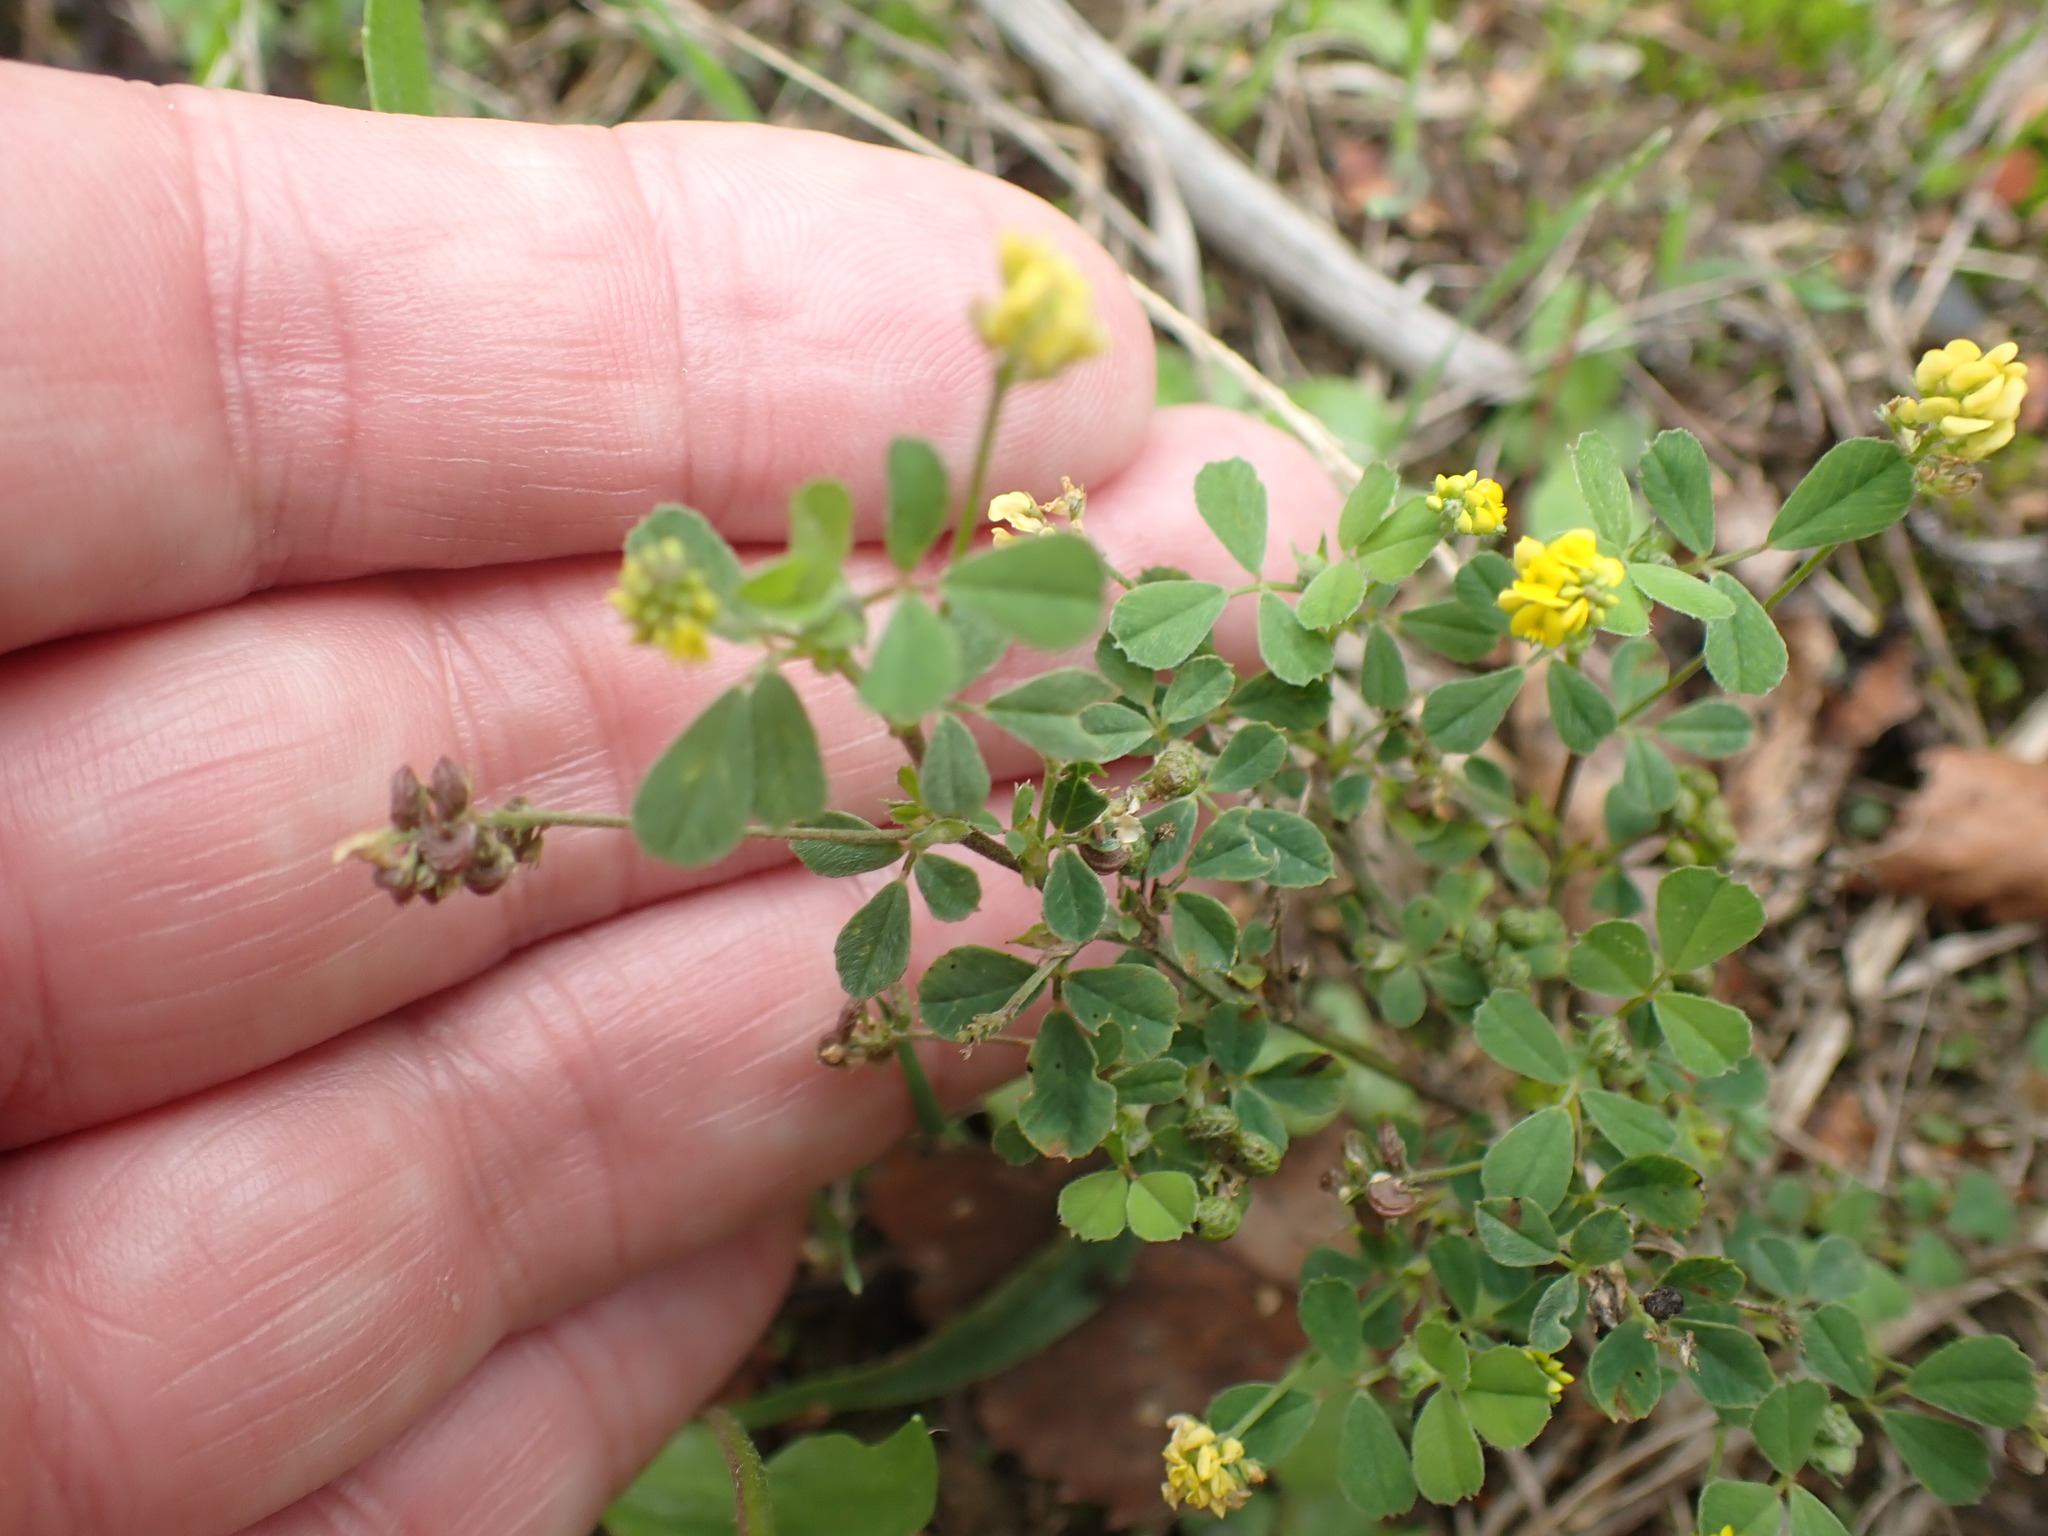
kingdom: Plantae
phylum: Tracheophyta
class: Magnoliopsida
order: Fabales
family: Fabaceae
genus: Medicago
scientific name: Medicago lupulina
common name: Black medick
